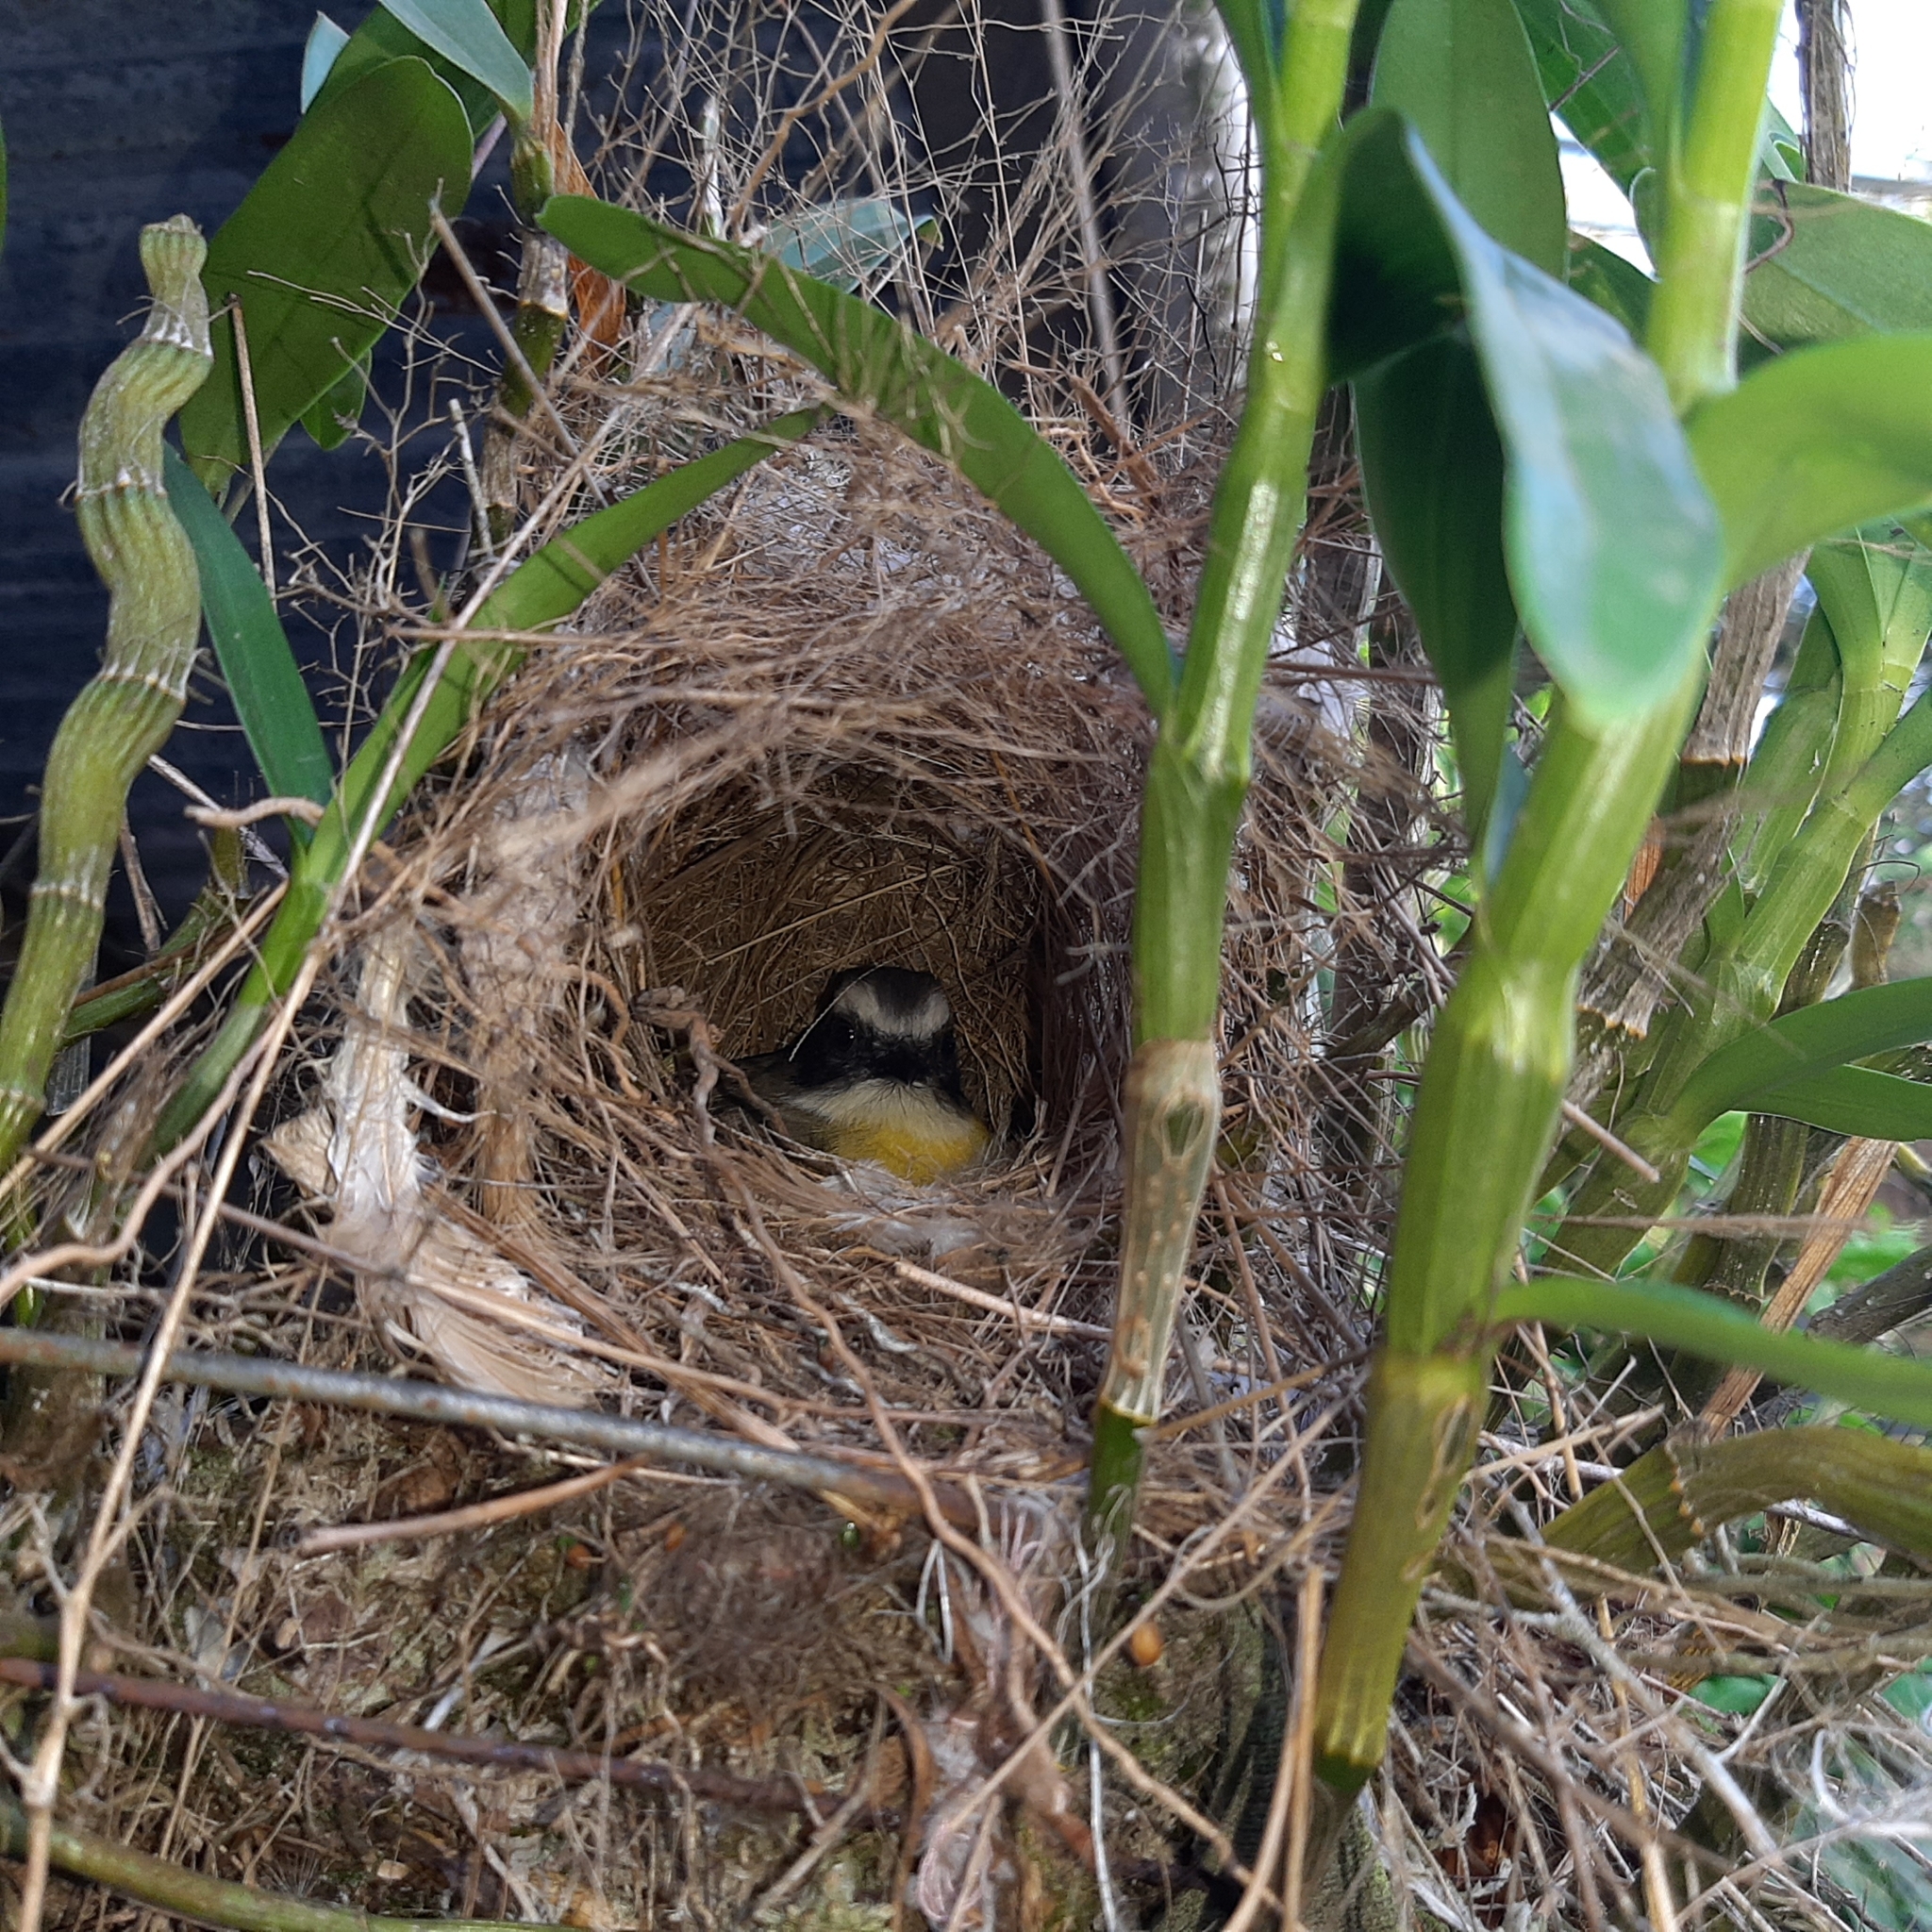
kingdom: Animalia
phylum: Chordata
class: Aves
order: Passeriformes
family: Tyrannidae
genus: Myiozetetes
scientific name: Myiozetetes similis
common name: Social flycatcher
